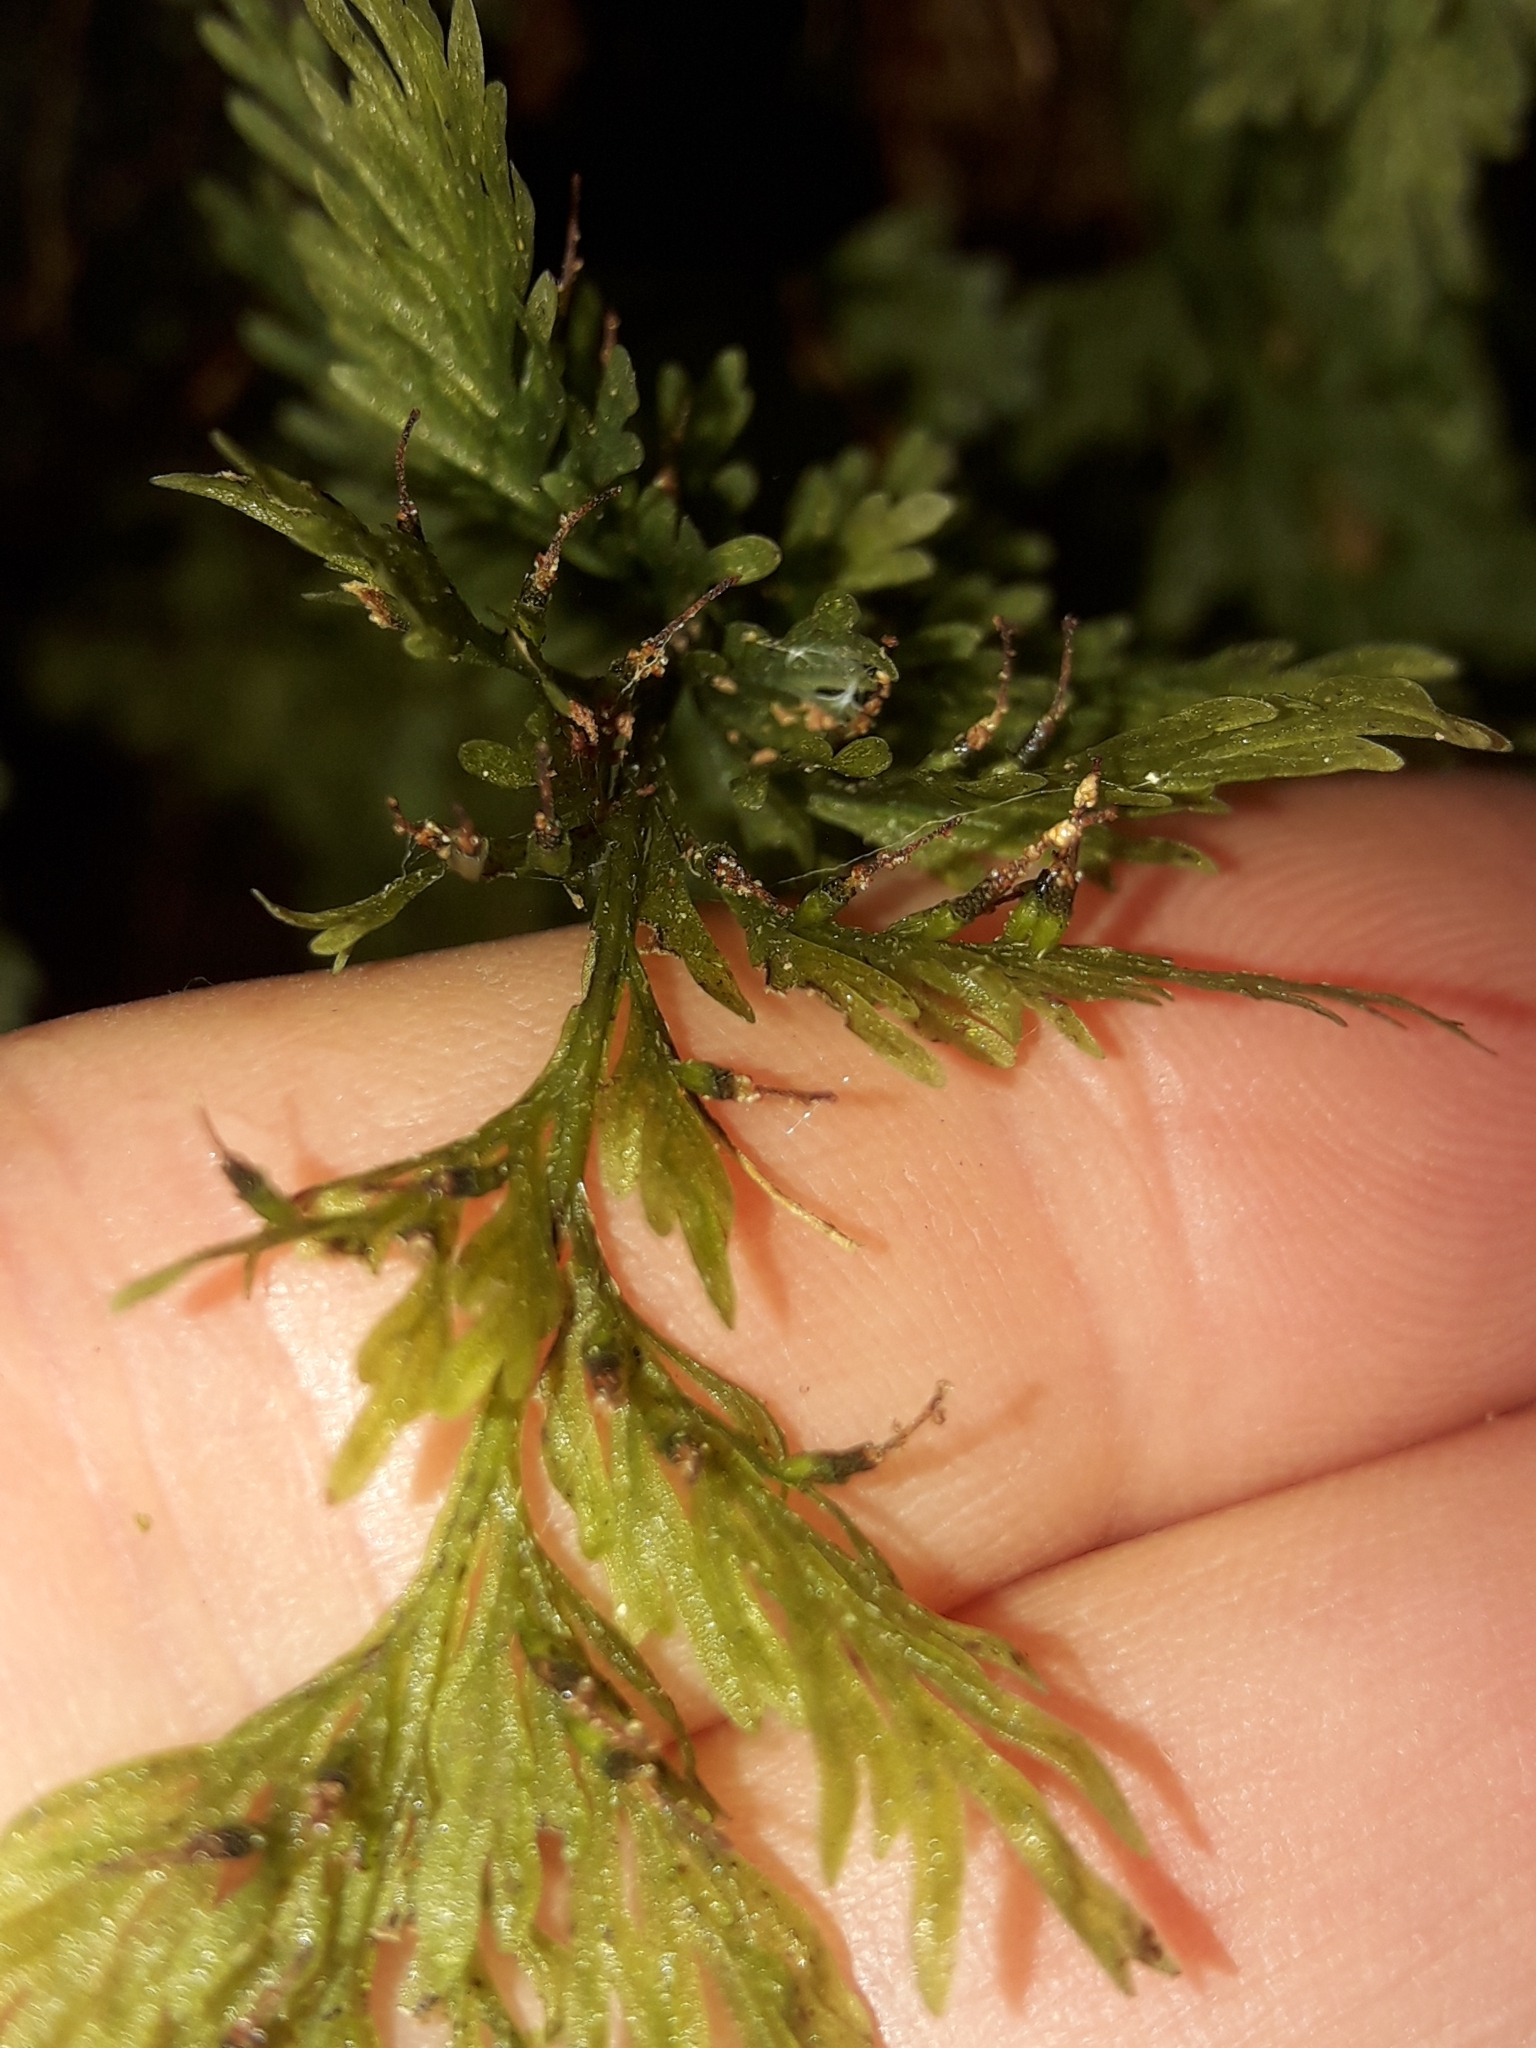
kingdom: Plantae
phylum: Tracheophyta
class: Polypodiopsida
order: Hymenophyllales
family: Hymenophyllaceae
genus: Abrodictyum
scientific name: Abrodictyum strictum
